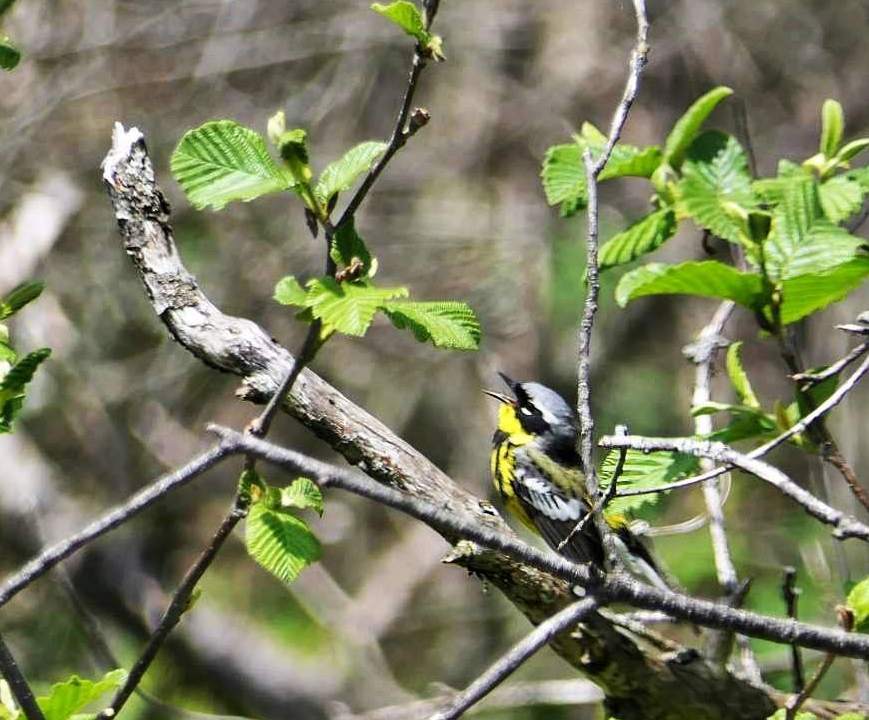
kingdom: Animalia
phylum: Chordata
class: Aves
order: Passeriformes
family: Parulidae
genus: Setophaga
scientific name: Setophaga magnolia
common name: Magnolia warbler
